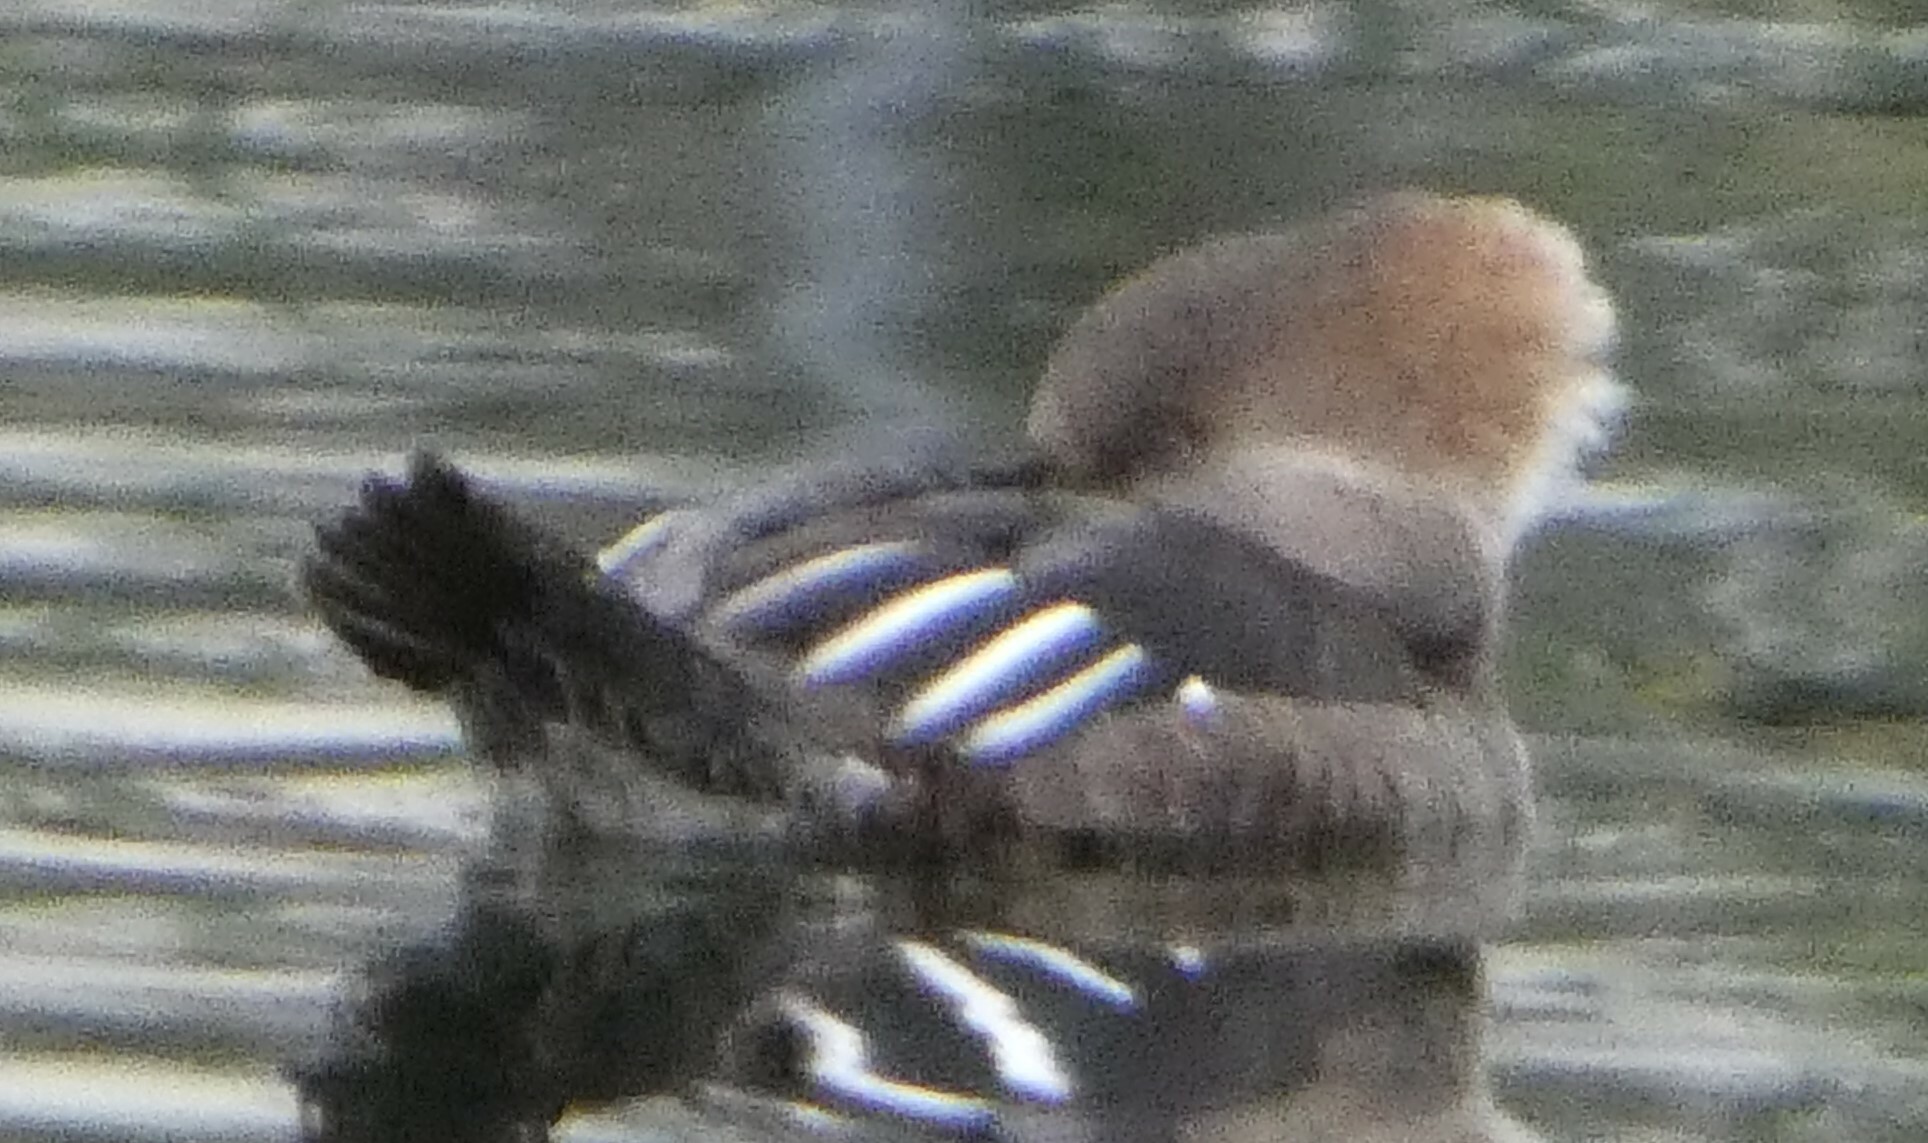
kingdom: Animalia
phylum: Chordata
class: Aves
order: Anseriformes
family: Anatidae
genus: Lophodytes
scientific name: Lophodytes cucullatus
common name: Hooded merganser
